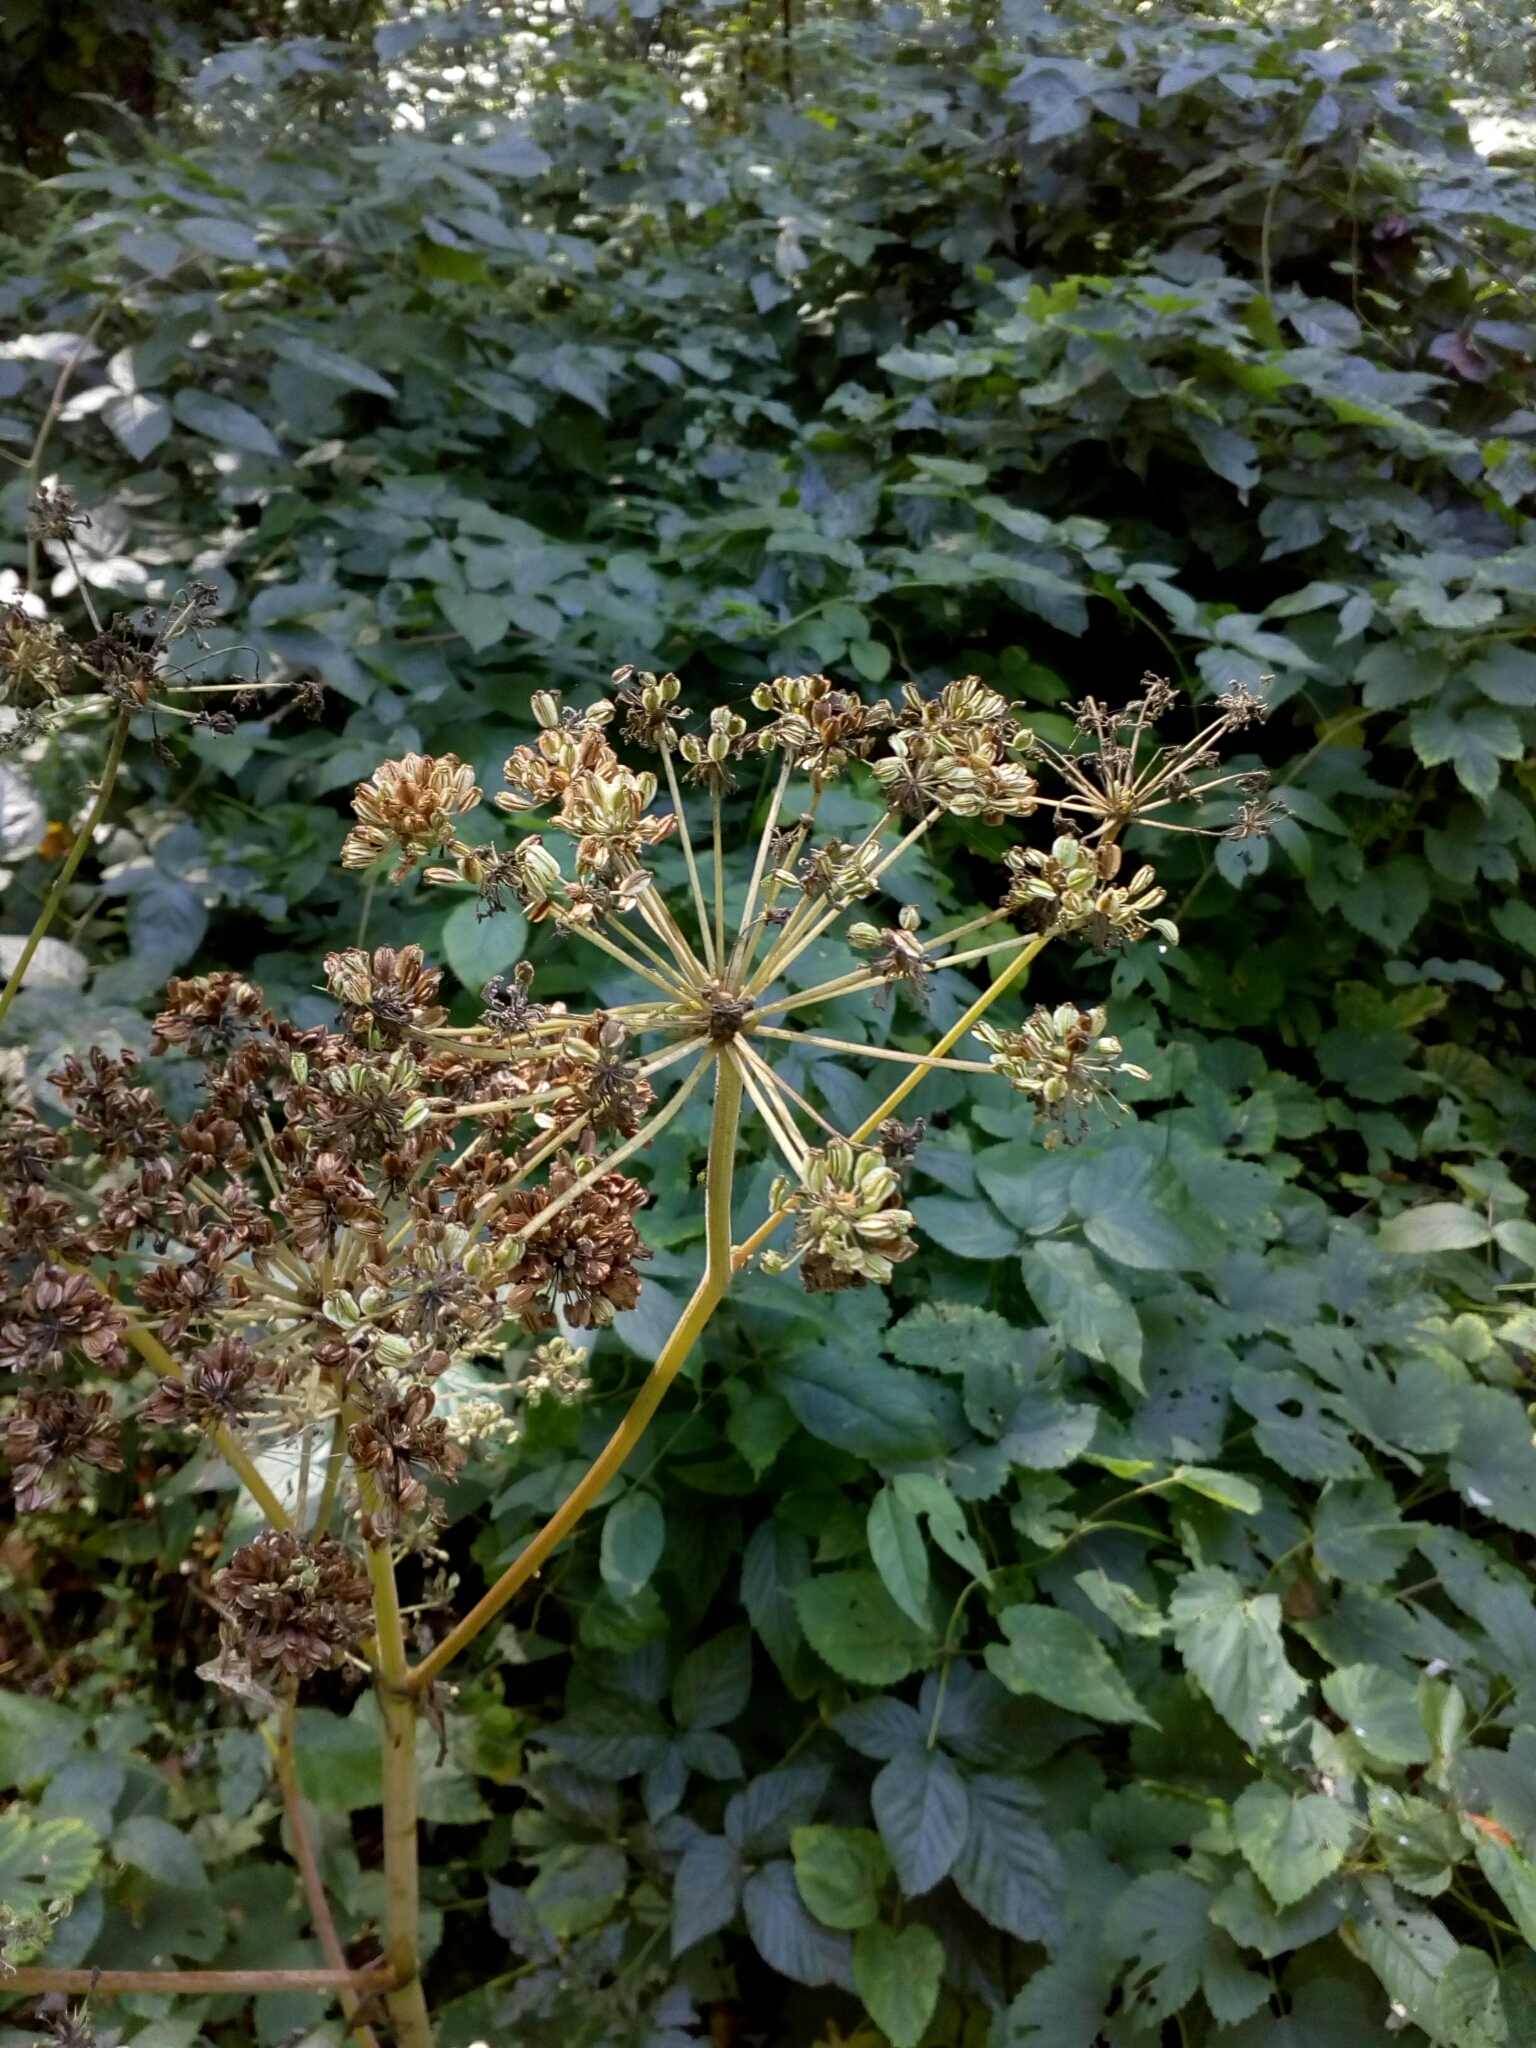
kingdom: Plantae
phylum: Tracheophyta
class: Magnoliopsida
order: Apiales
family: Apiaceae
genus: Angelica
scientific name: Angelica sylvestris
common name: Wild angelica
